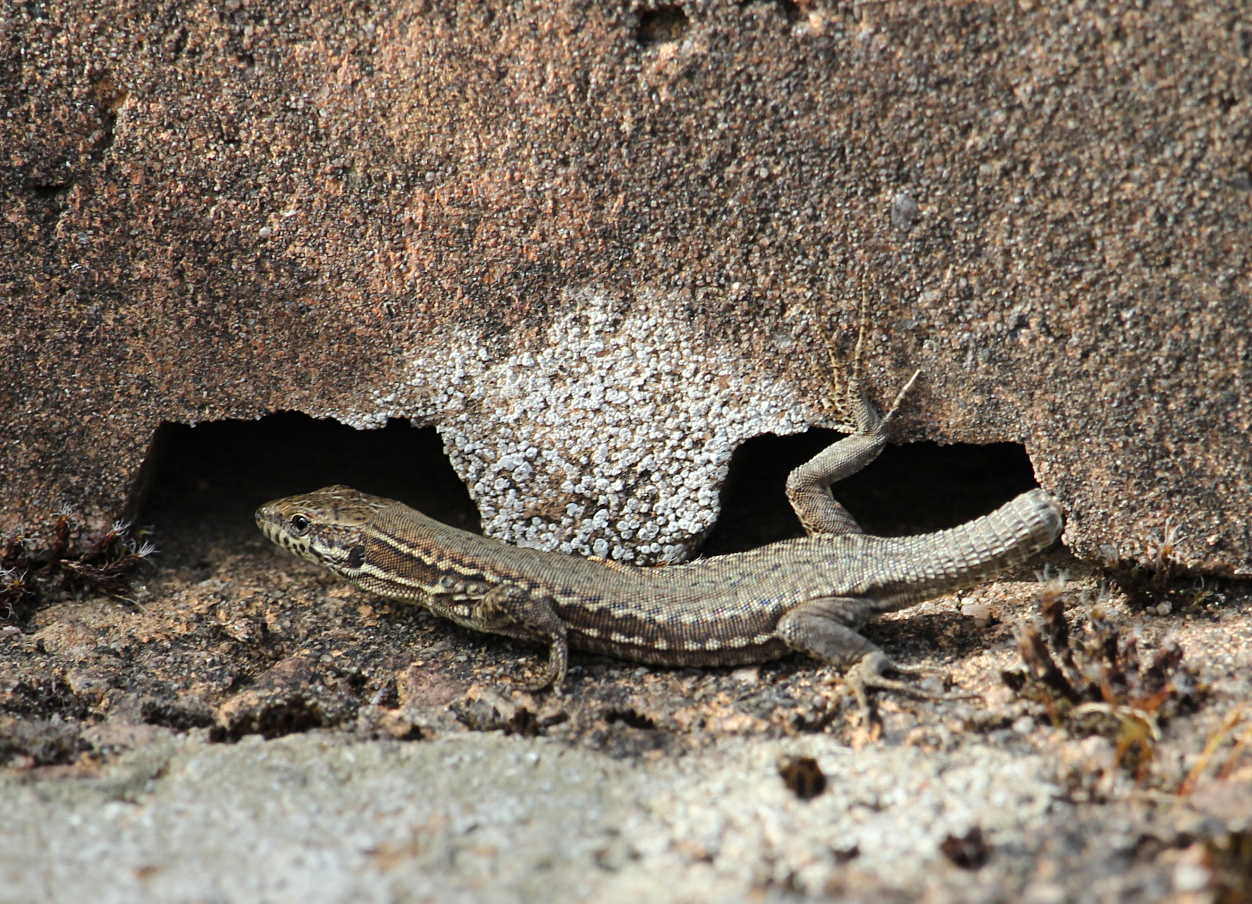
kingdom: Animalia
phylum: Chordata
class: Squamata
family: Lacertidae
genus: Podarcis
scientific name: Podarcis muralis
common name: Common wall lizard
